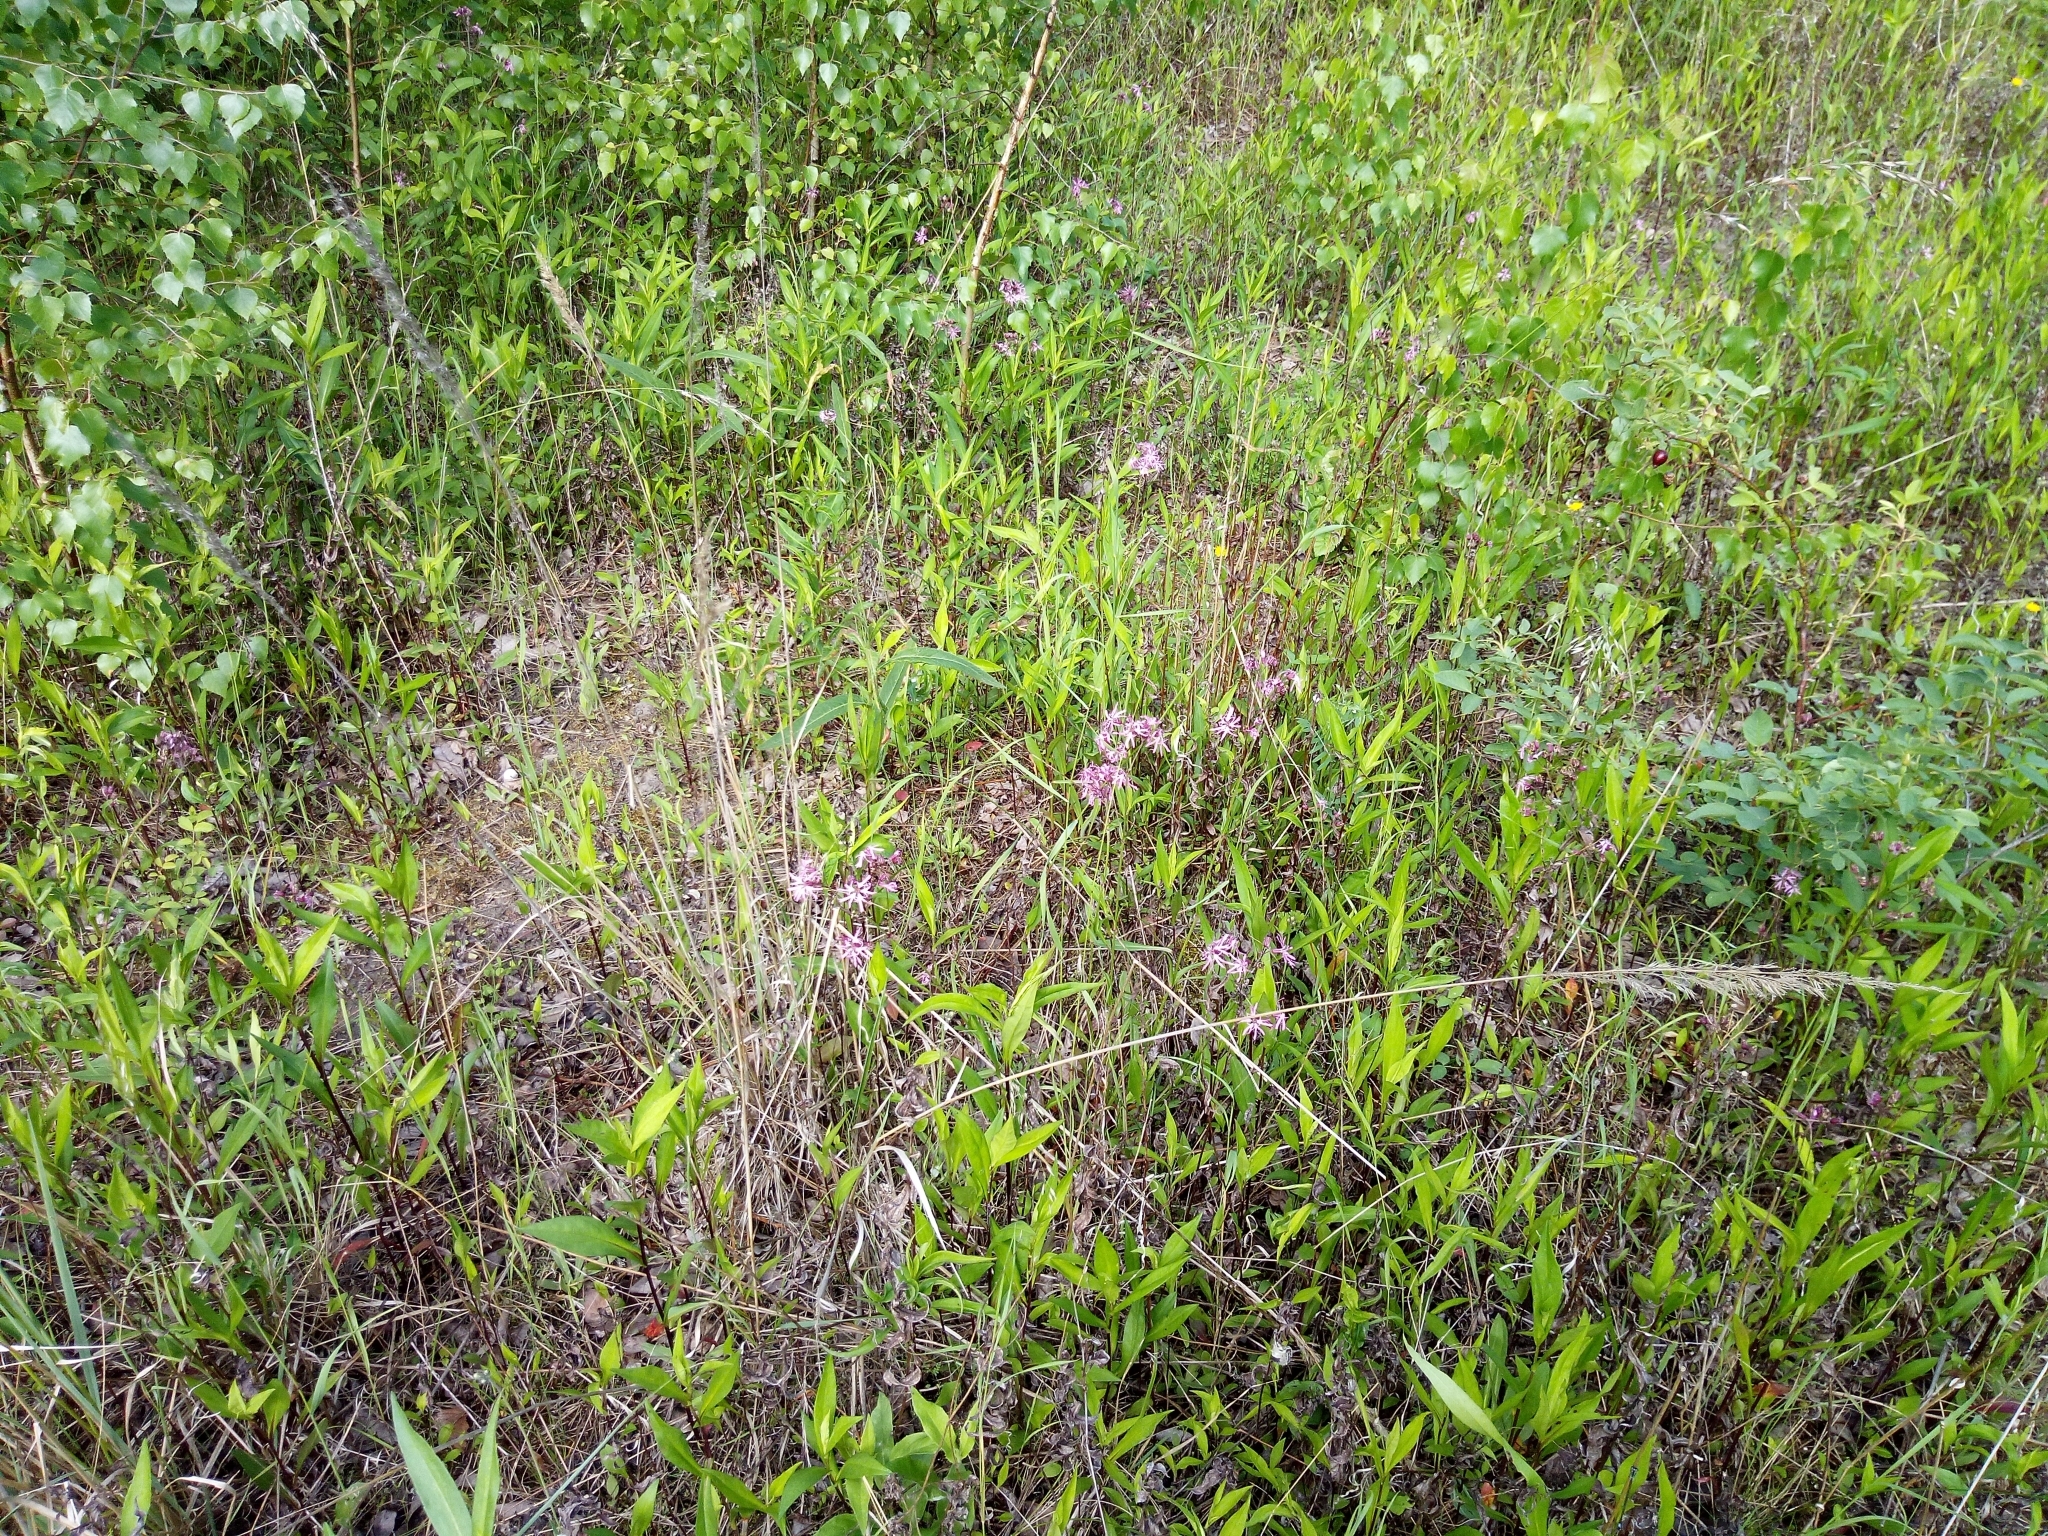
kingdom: Plantae
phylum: Tracheophyta
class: Magnoliopsida
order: Caryophyllales
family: Caryophyllaceae
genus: Silene
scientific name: Silene flos-cuculi
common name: Ragged-robin
